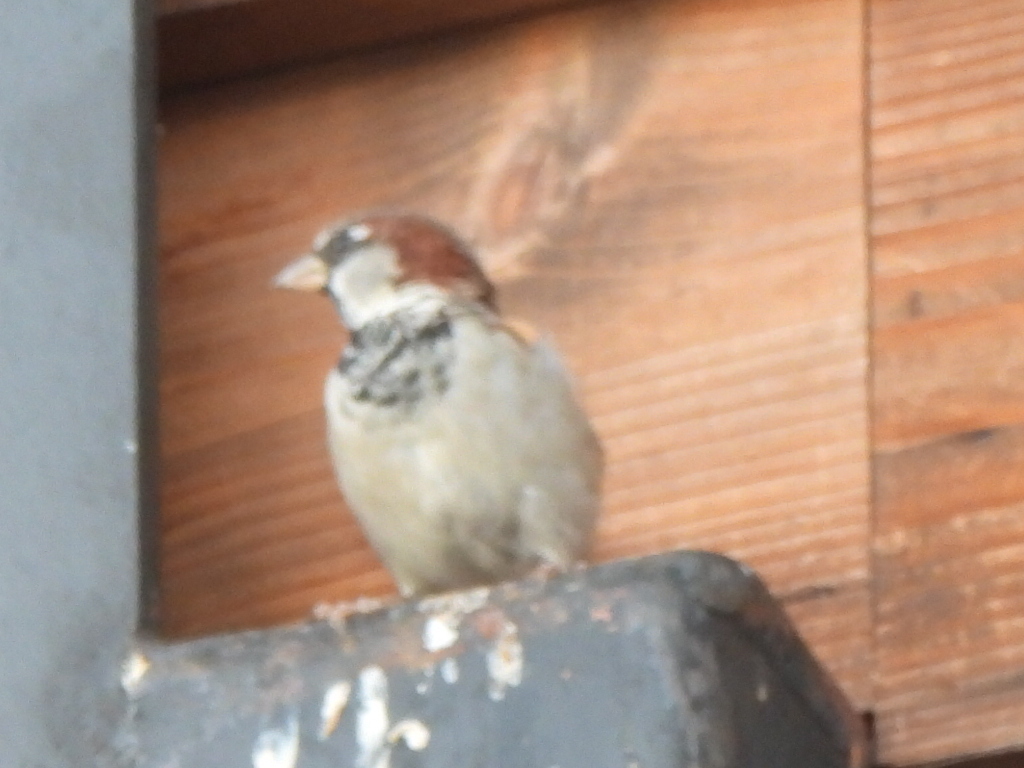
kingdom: Animalia
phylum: Chordata
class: Aves
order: Passeriformes
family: Passeridae
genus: Passer
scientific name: Passer domesticus
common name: House sparrow
